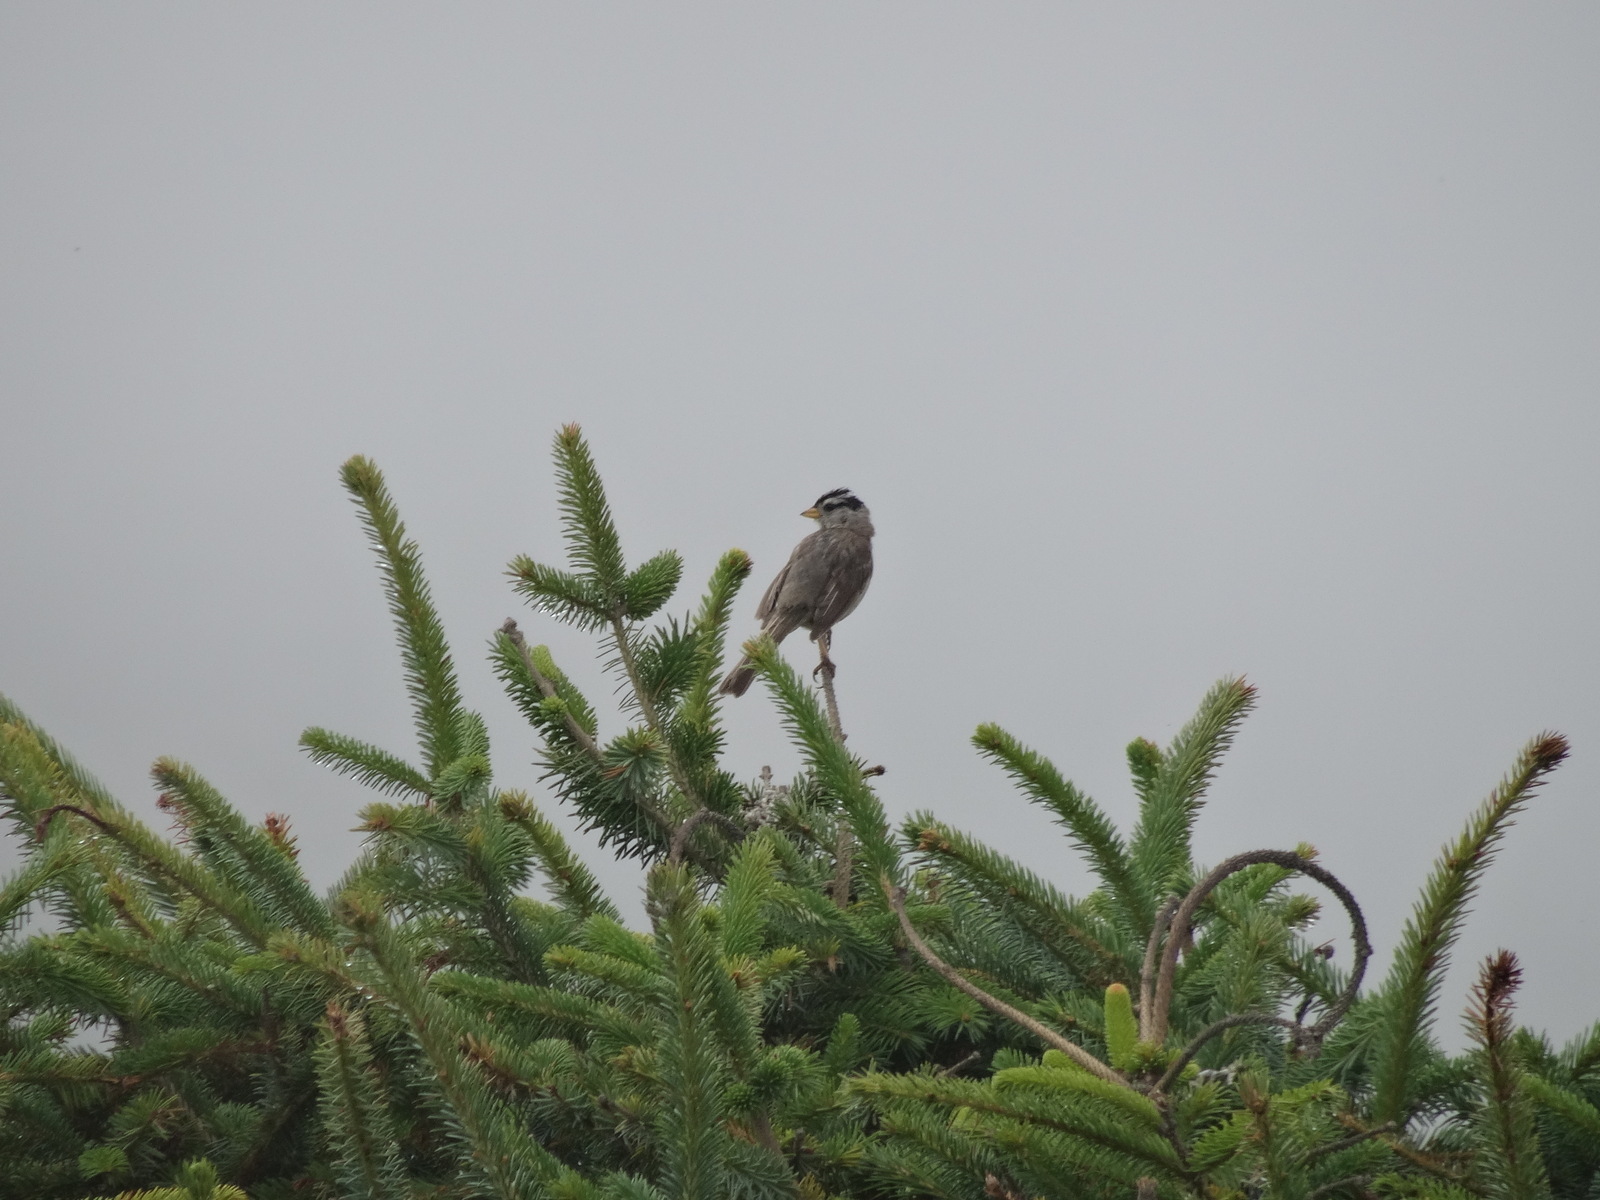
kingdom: Animalia
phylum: Chordata
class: Aves
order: Passeriformes
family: Passerellidae
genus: Zonotrichia
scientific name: Zonotrichia leucophrys
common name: White-crowned sparrow
